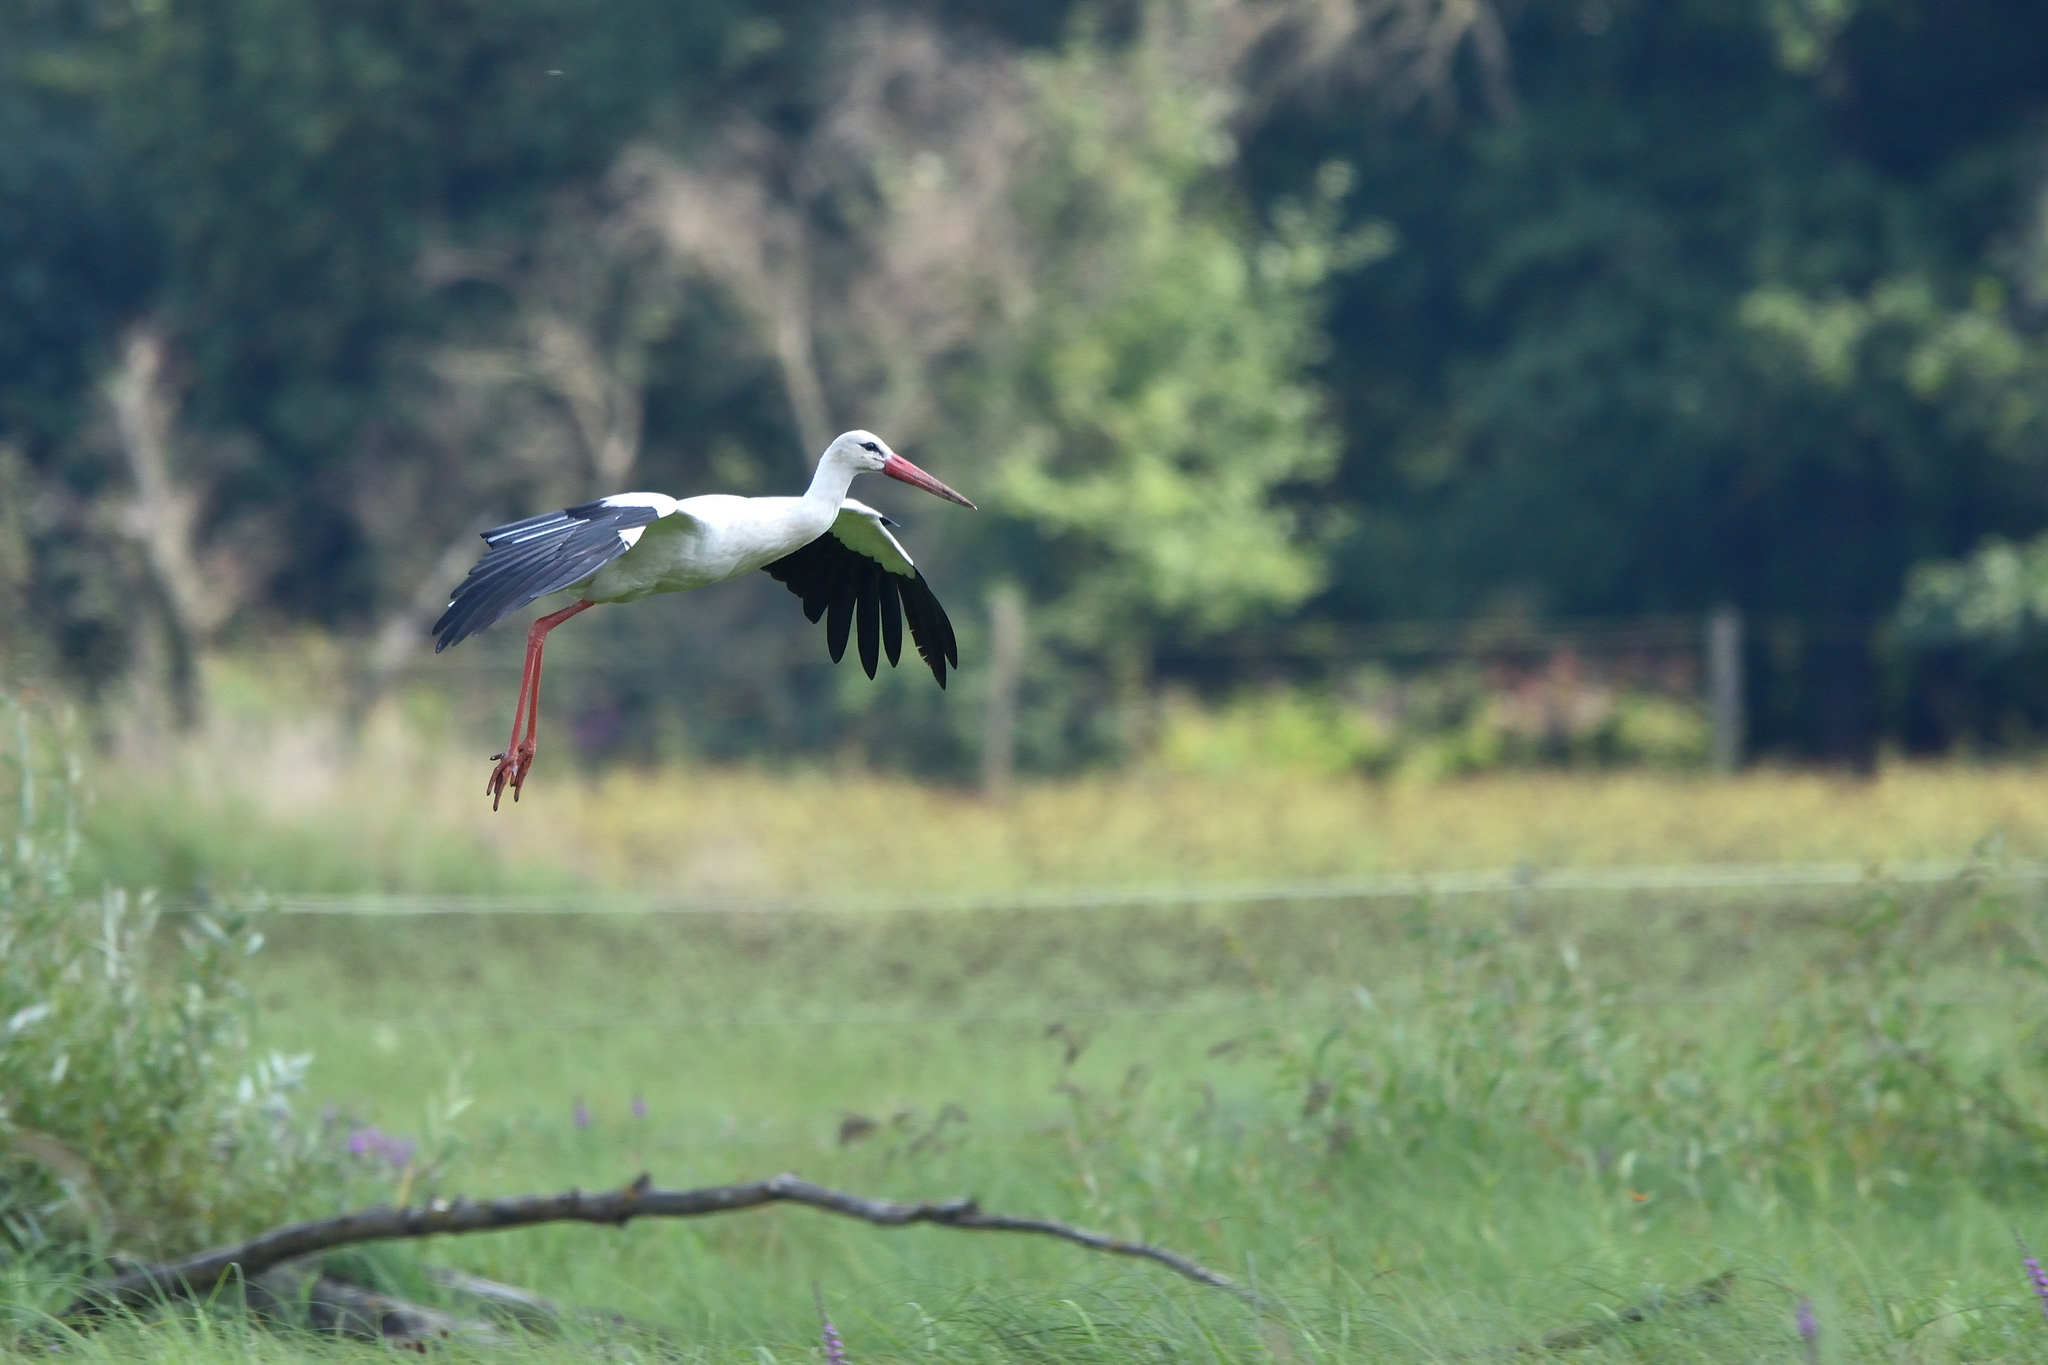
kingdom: Animalia
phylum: Chordata
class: Aves
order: Ciconiiformes
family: Ciconiidae
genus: Ciconia
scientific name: Ciconia ciconia
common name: White stork
